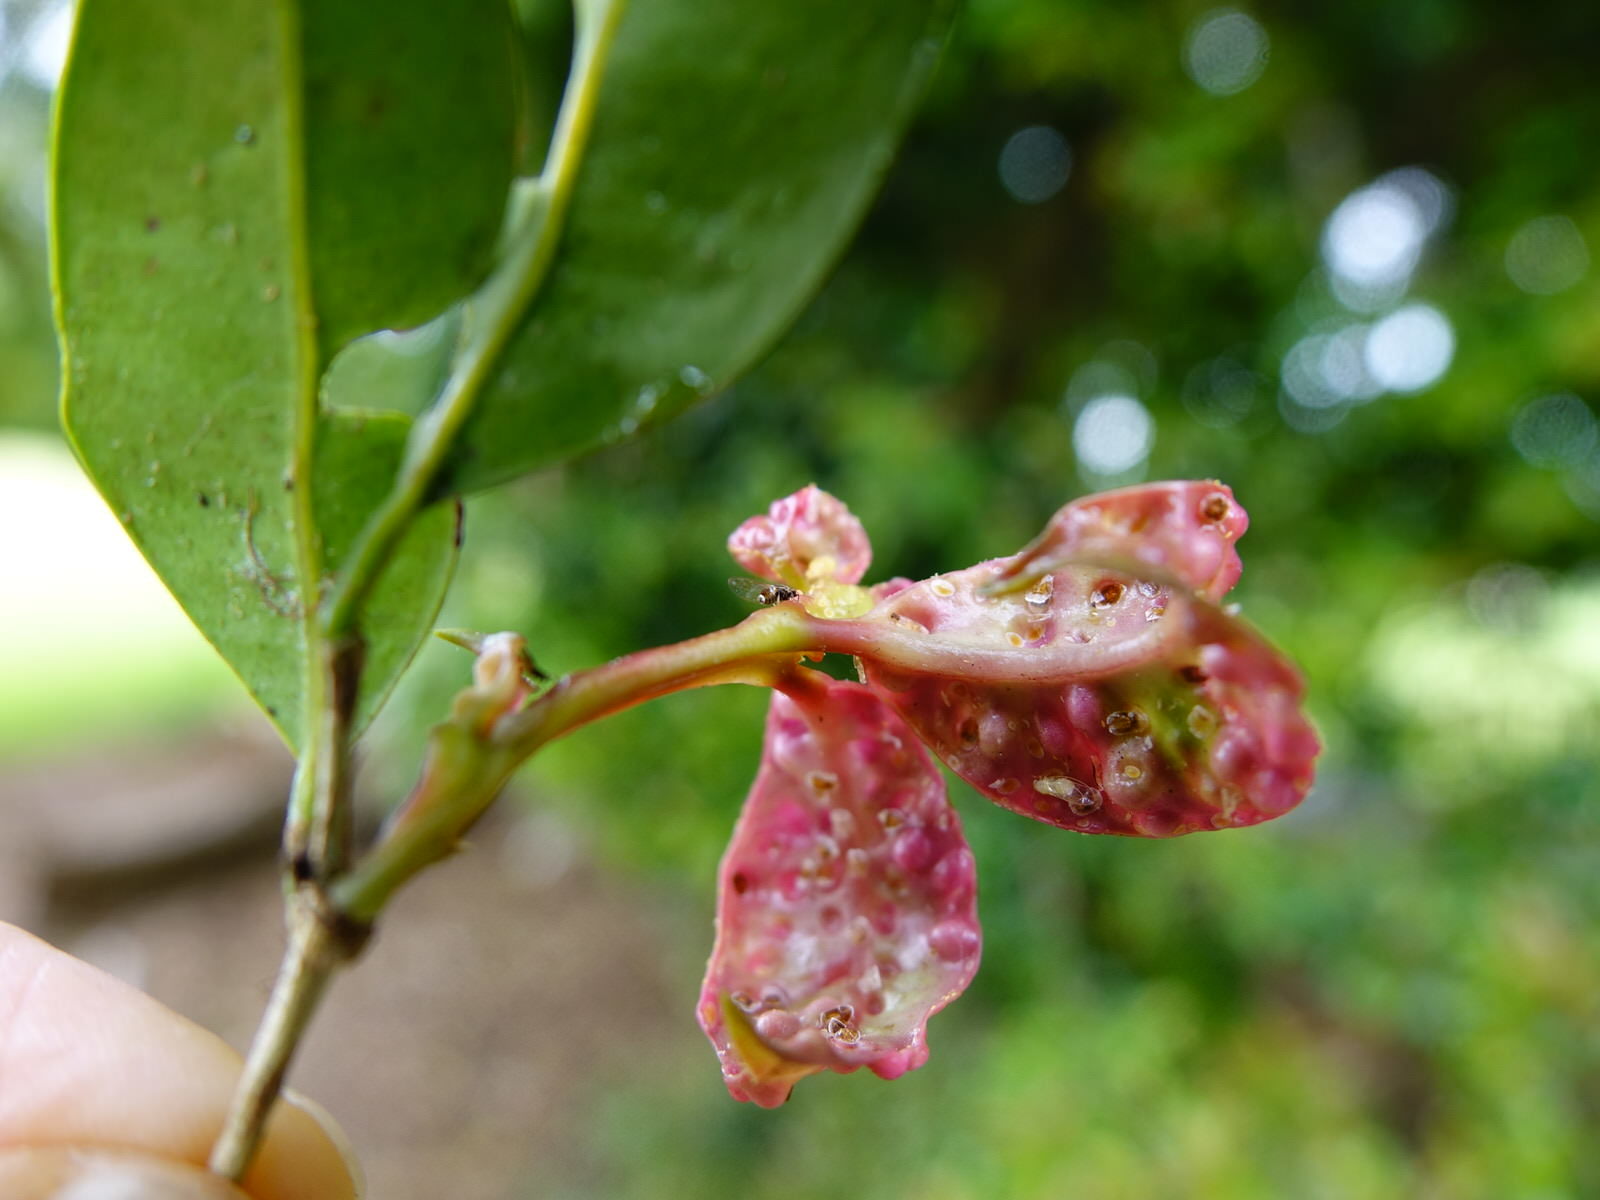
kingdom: Animalia
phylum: Arthropoda
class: Insecta
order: Hemiptera
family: Triozidae
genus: Trioza
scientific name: Trioza adventicia
